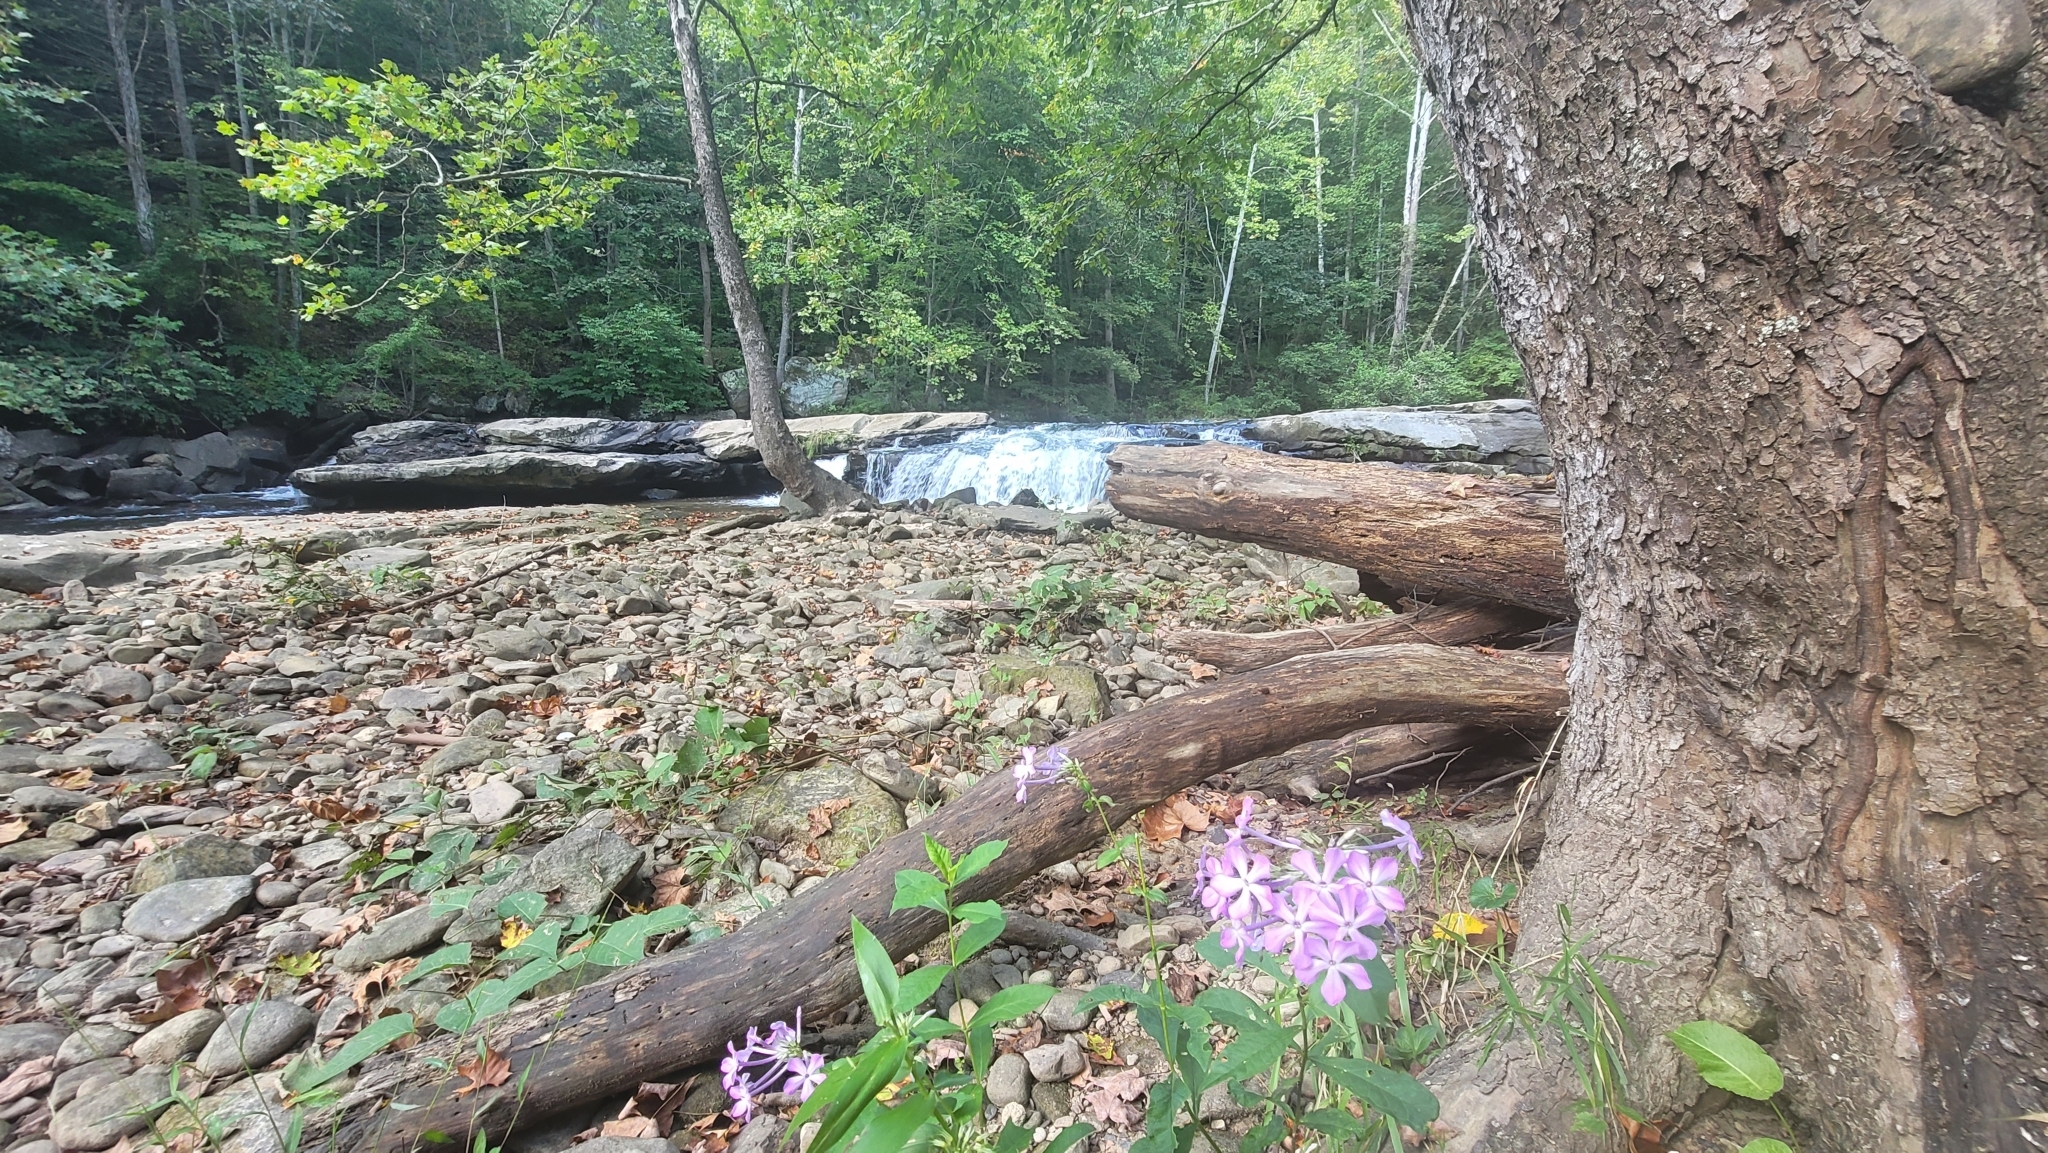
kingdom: Plantae
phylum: Tracheophyta
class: Magnoliopsida
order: Ericales
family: Polemoniaceae
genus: Phlox
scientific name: Phlox paniculata
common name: Fall phlox
